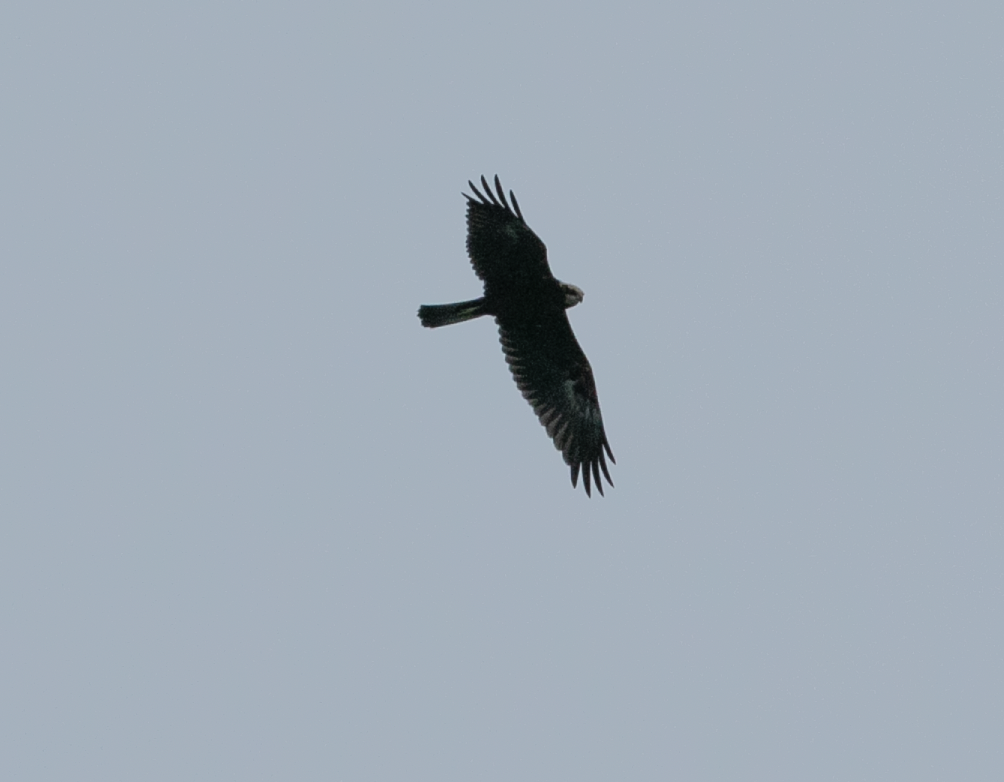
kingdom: Animalia
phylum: Chordata
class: Aves
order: Accipitriformes
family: Accipitridae
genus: Circus
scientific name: Circus aeruginosus
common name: Western marsh harrier
